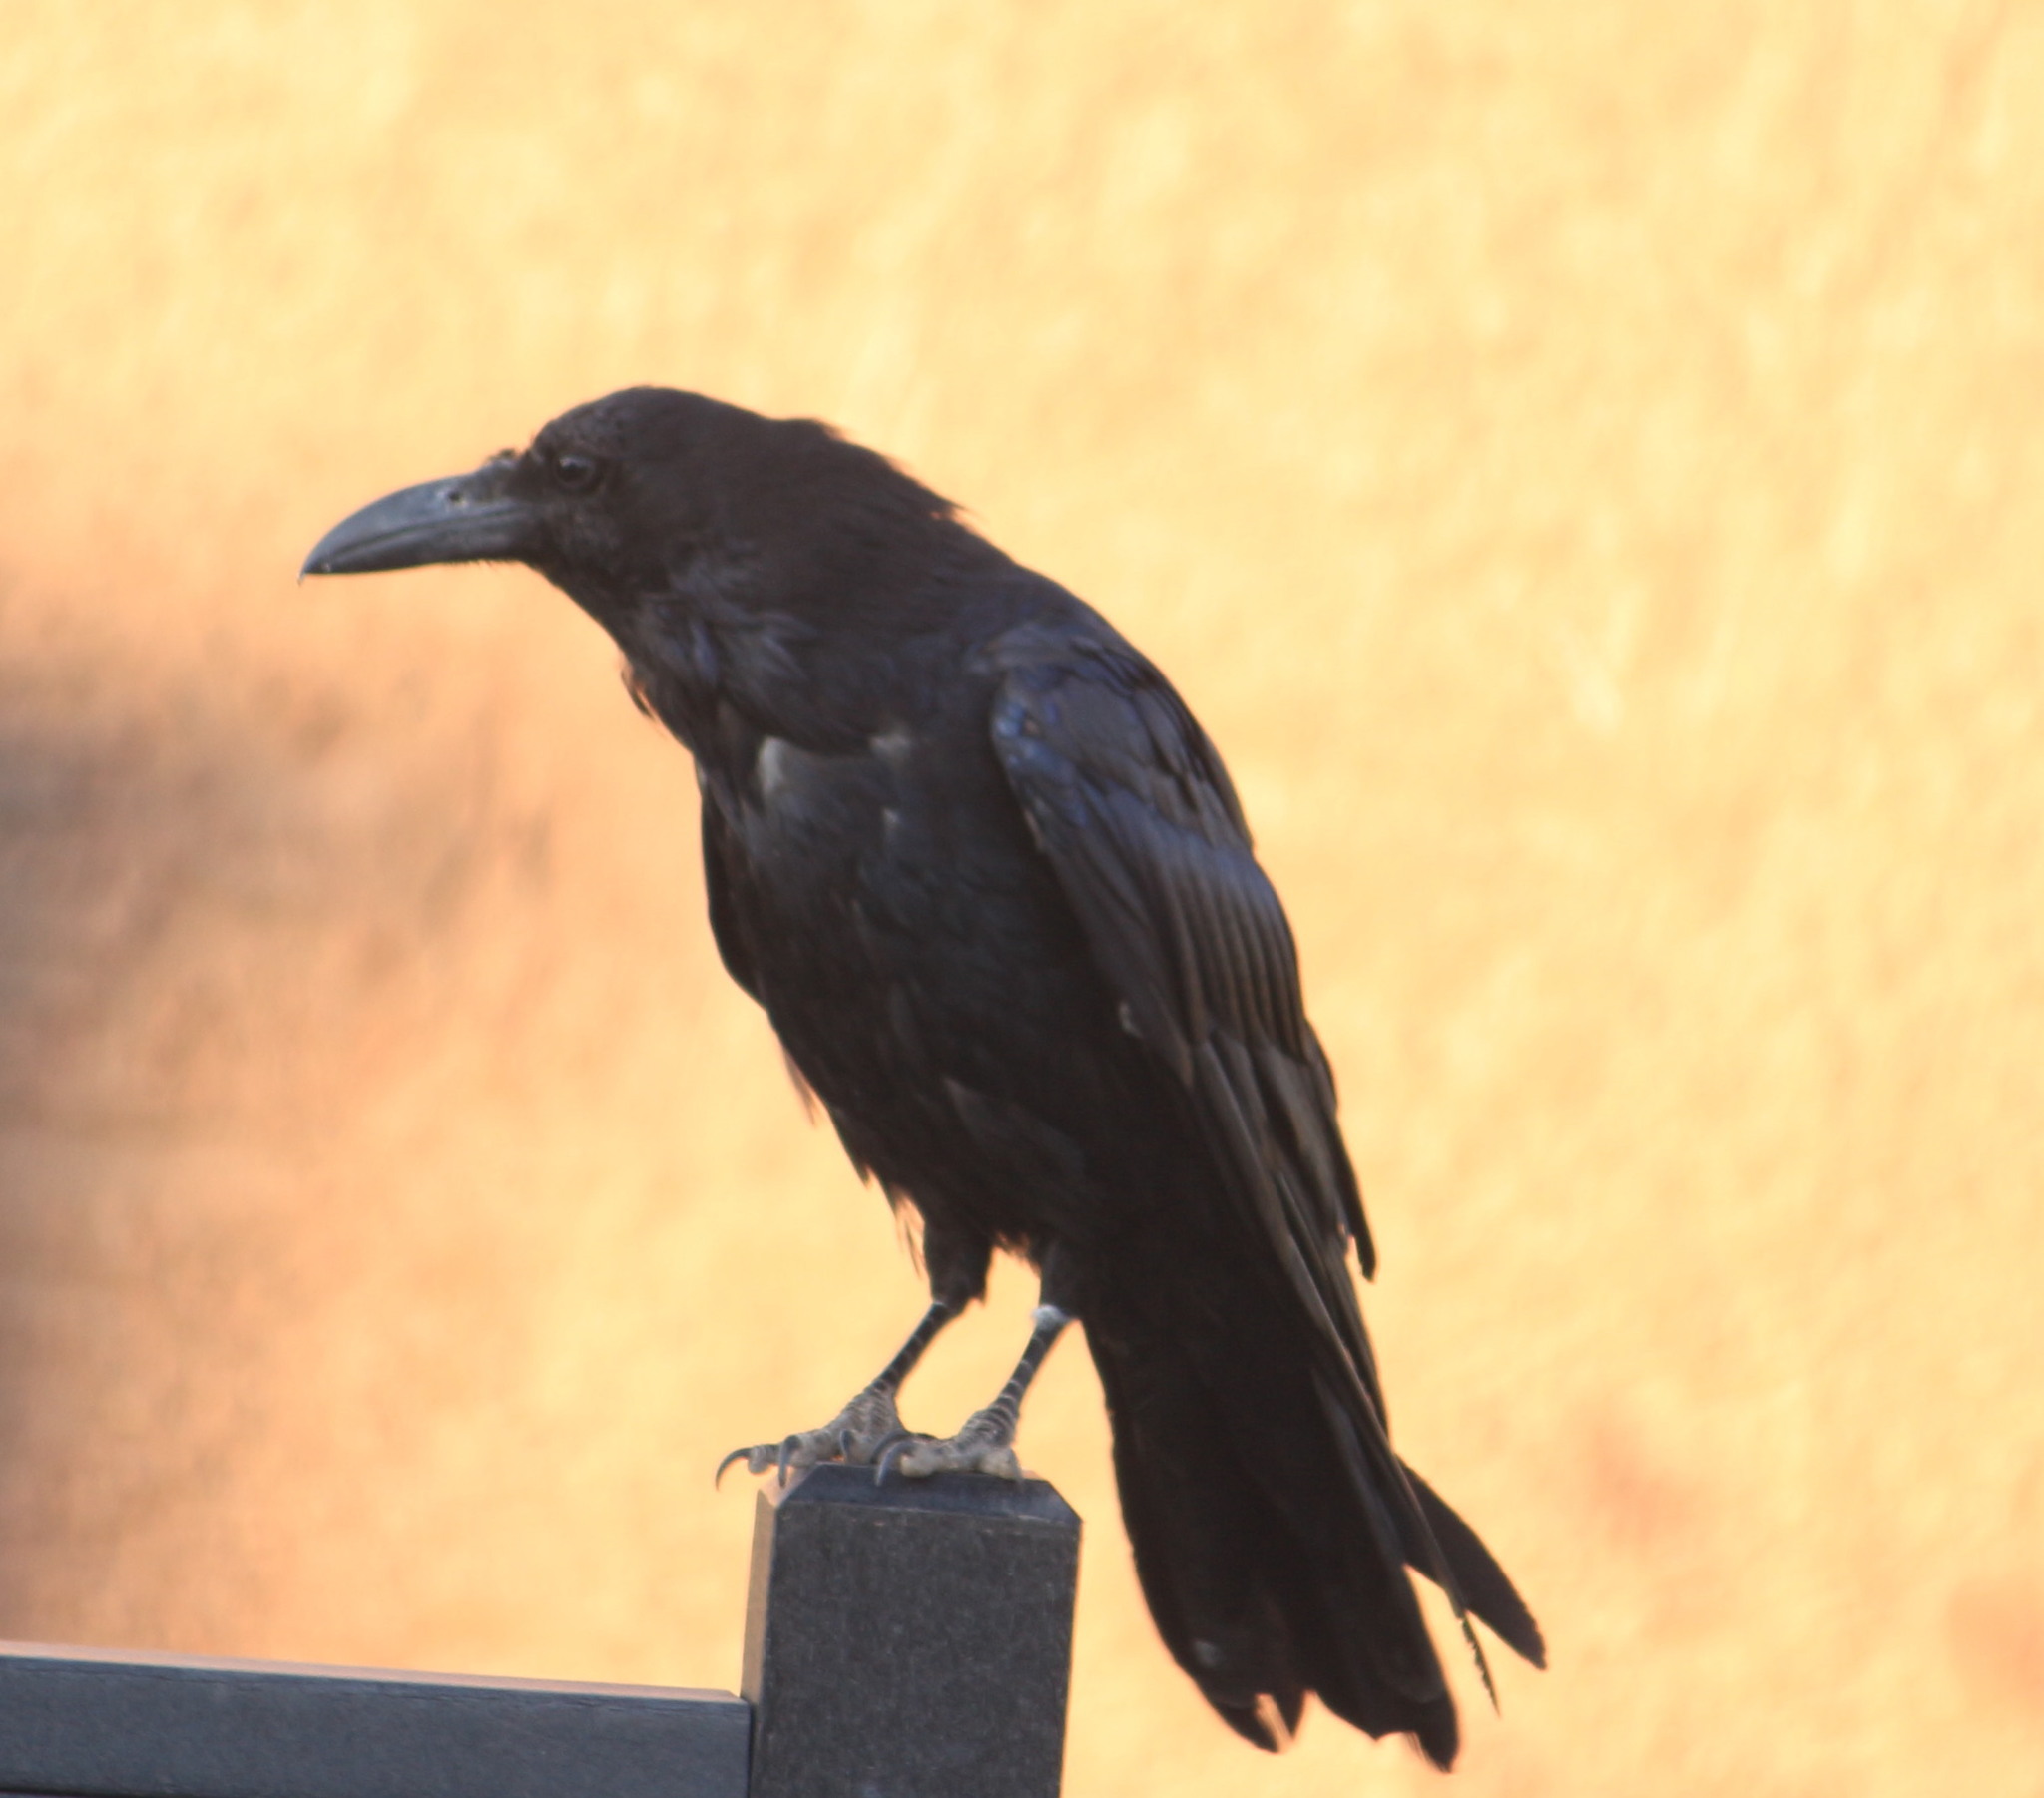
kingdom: Animalia
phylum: Chordata
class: Aves
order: Passeriformes
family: Corvidae
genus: Corvus
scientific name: Corvus corax
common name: Common raven
